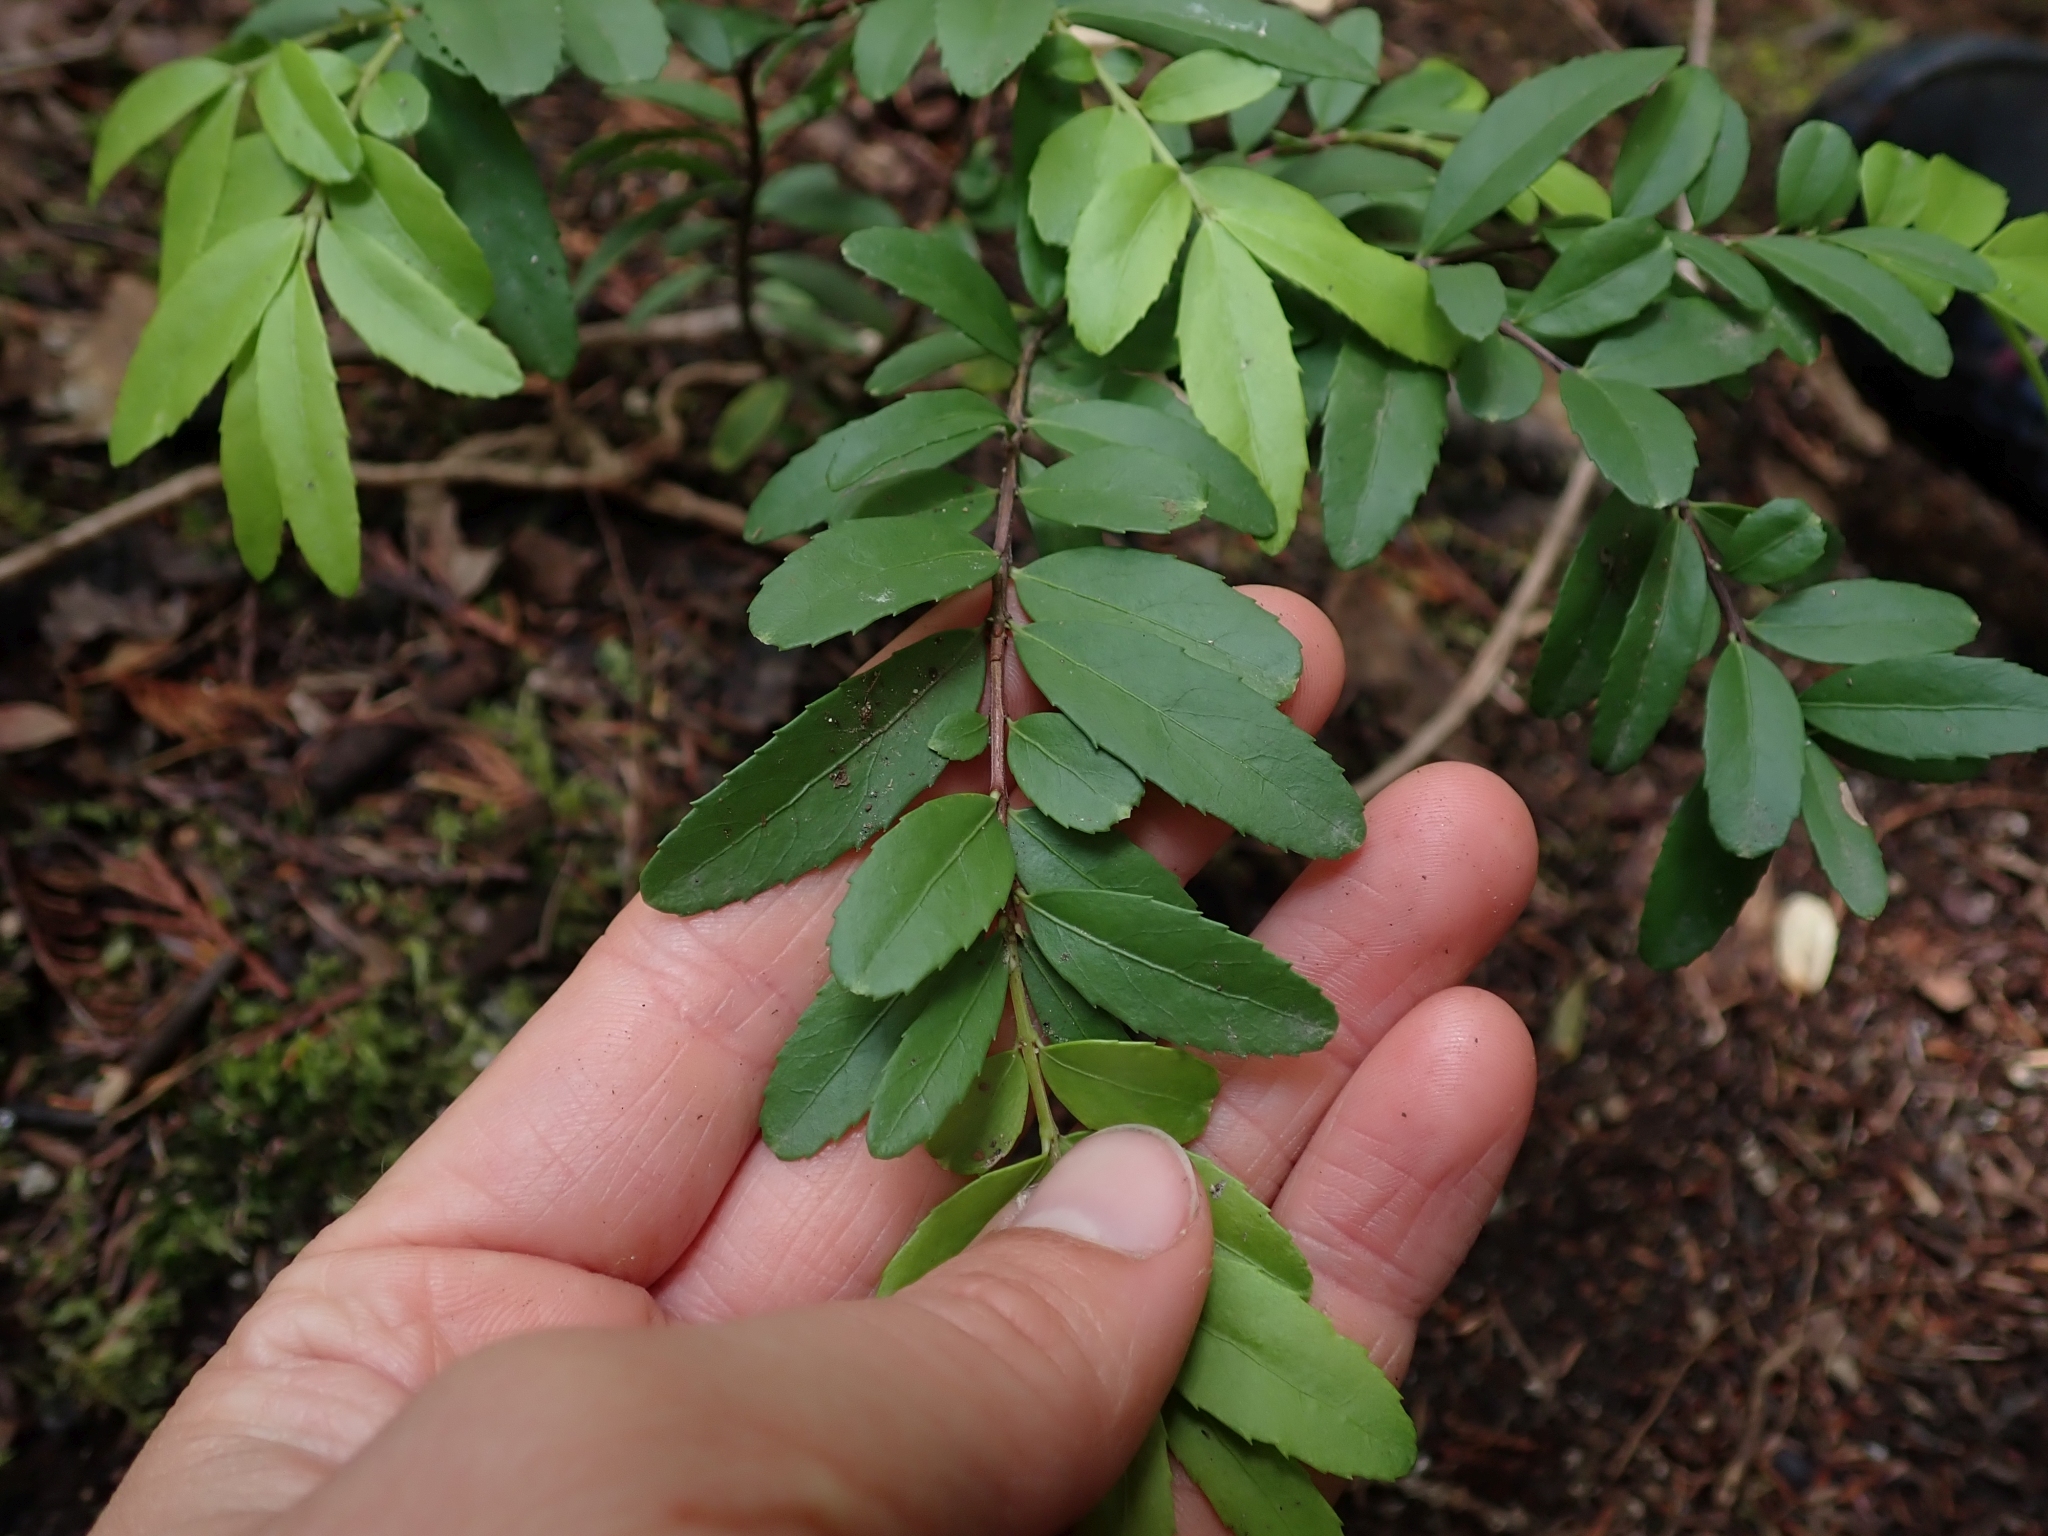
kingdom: Plantae
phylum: Tracheophyta
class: Magnoliopsida
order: Celastrales
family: Celastraceae
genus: Paxistima
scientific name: Paxistima myrsinites
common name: Mountain-lover
